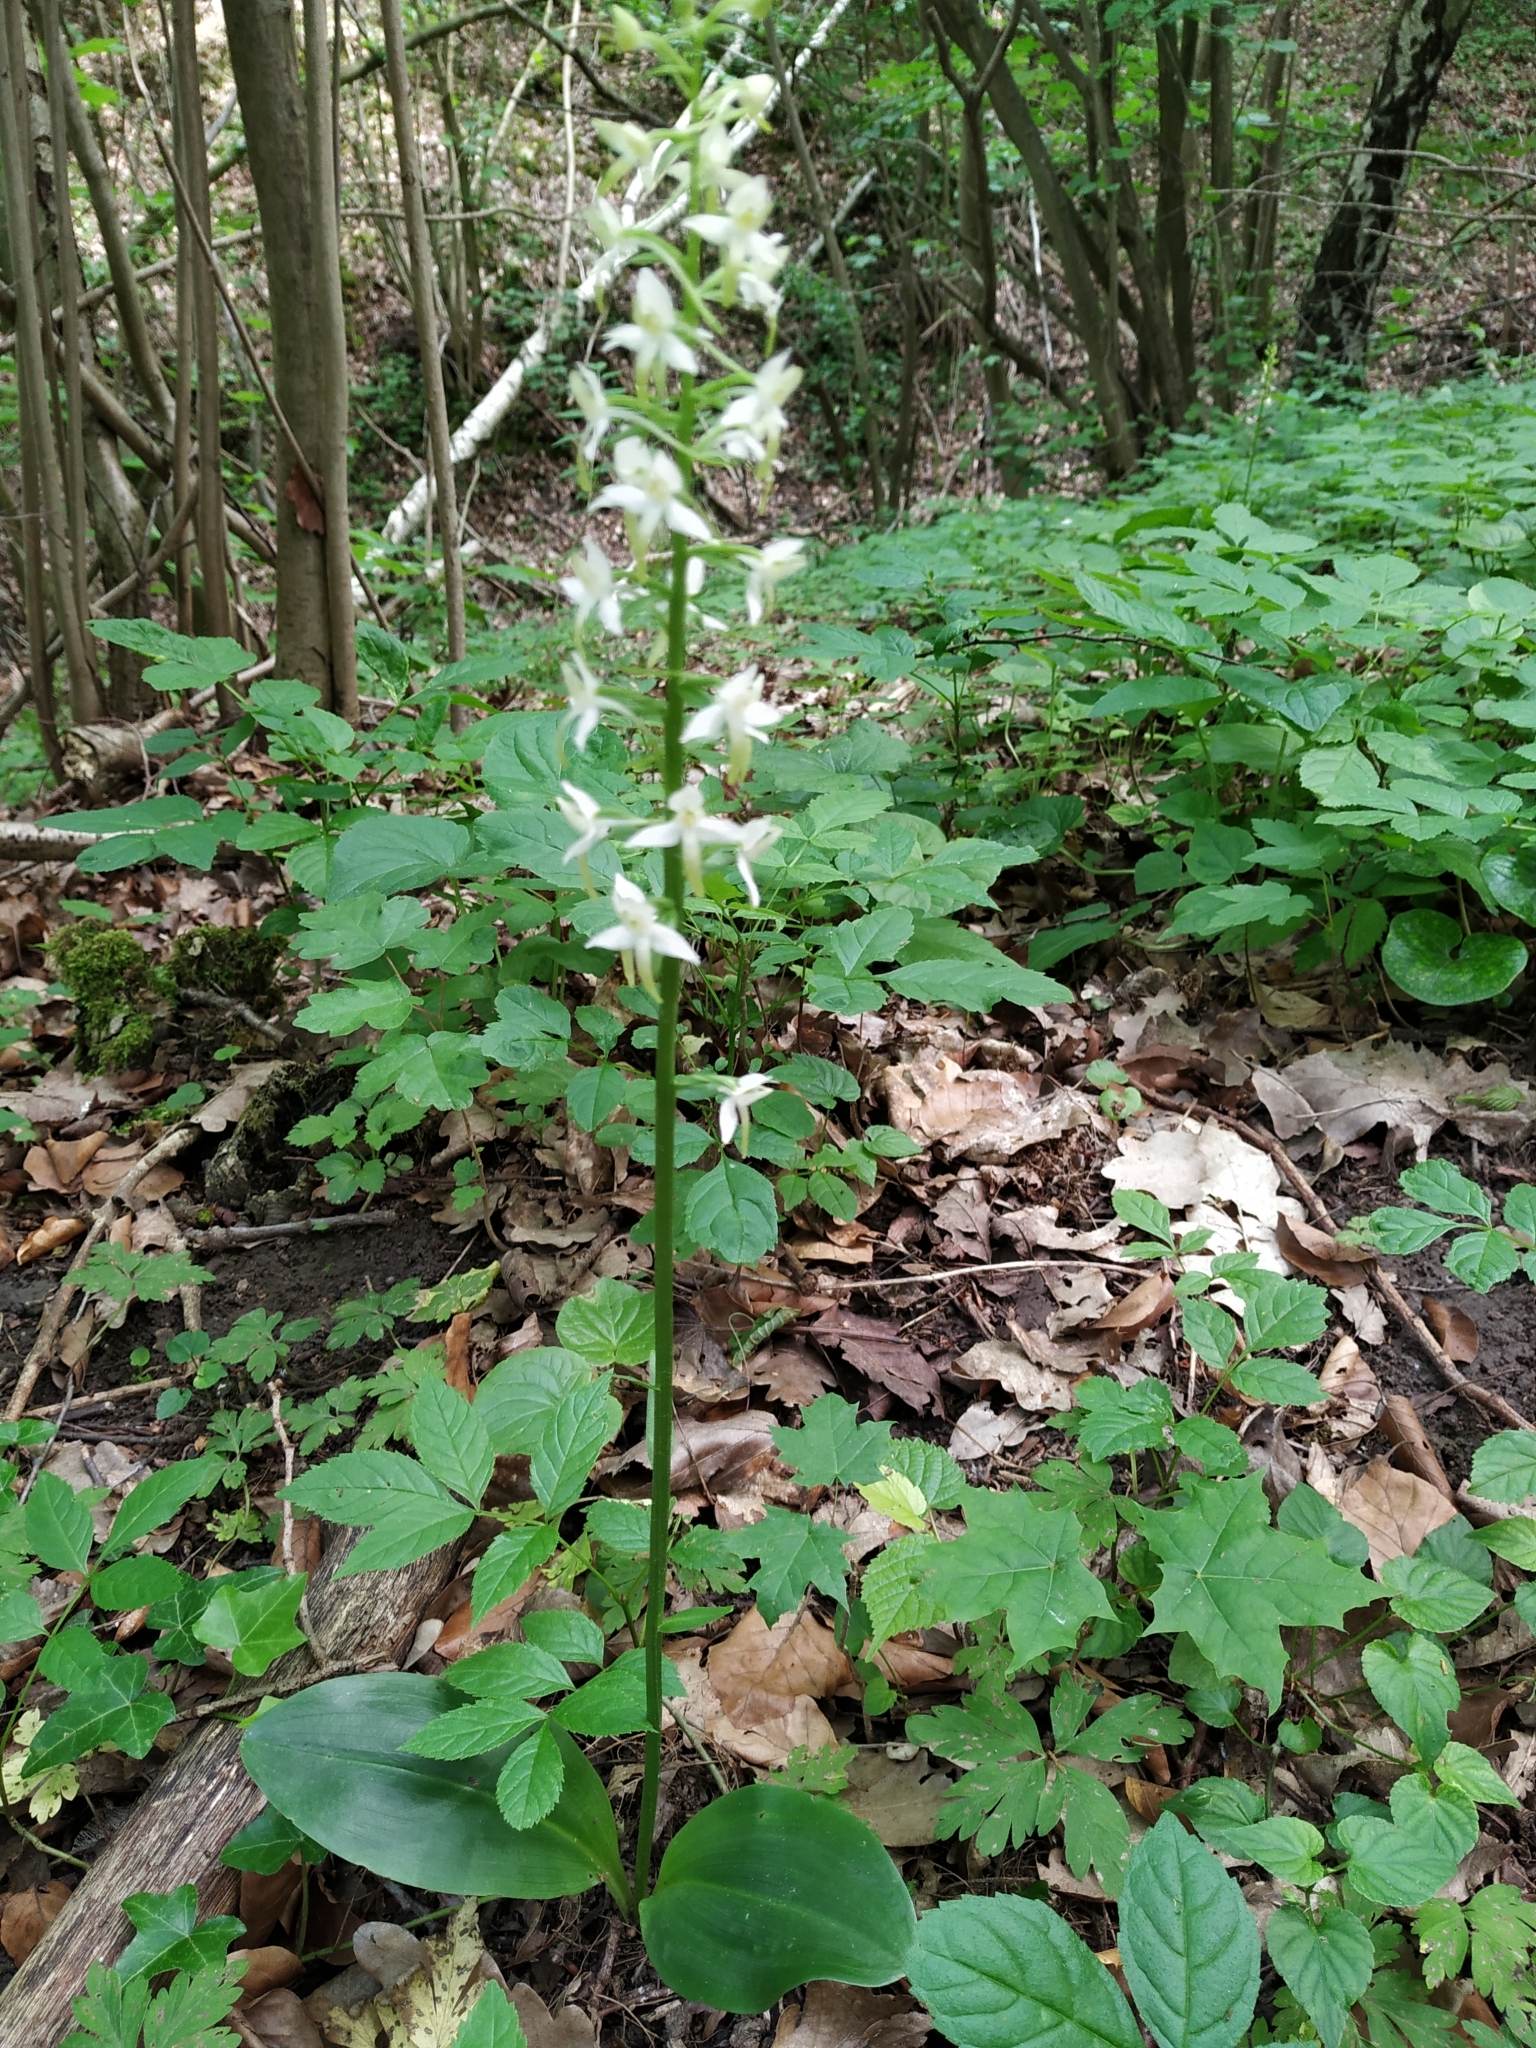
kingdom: Plantae
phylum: Tracheophyta
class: Liliopsida
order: Asparagales
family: Orchidaceae
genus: Platanthera
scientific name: Platanthera bifolia
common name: Lesser butterfly-orchid
